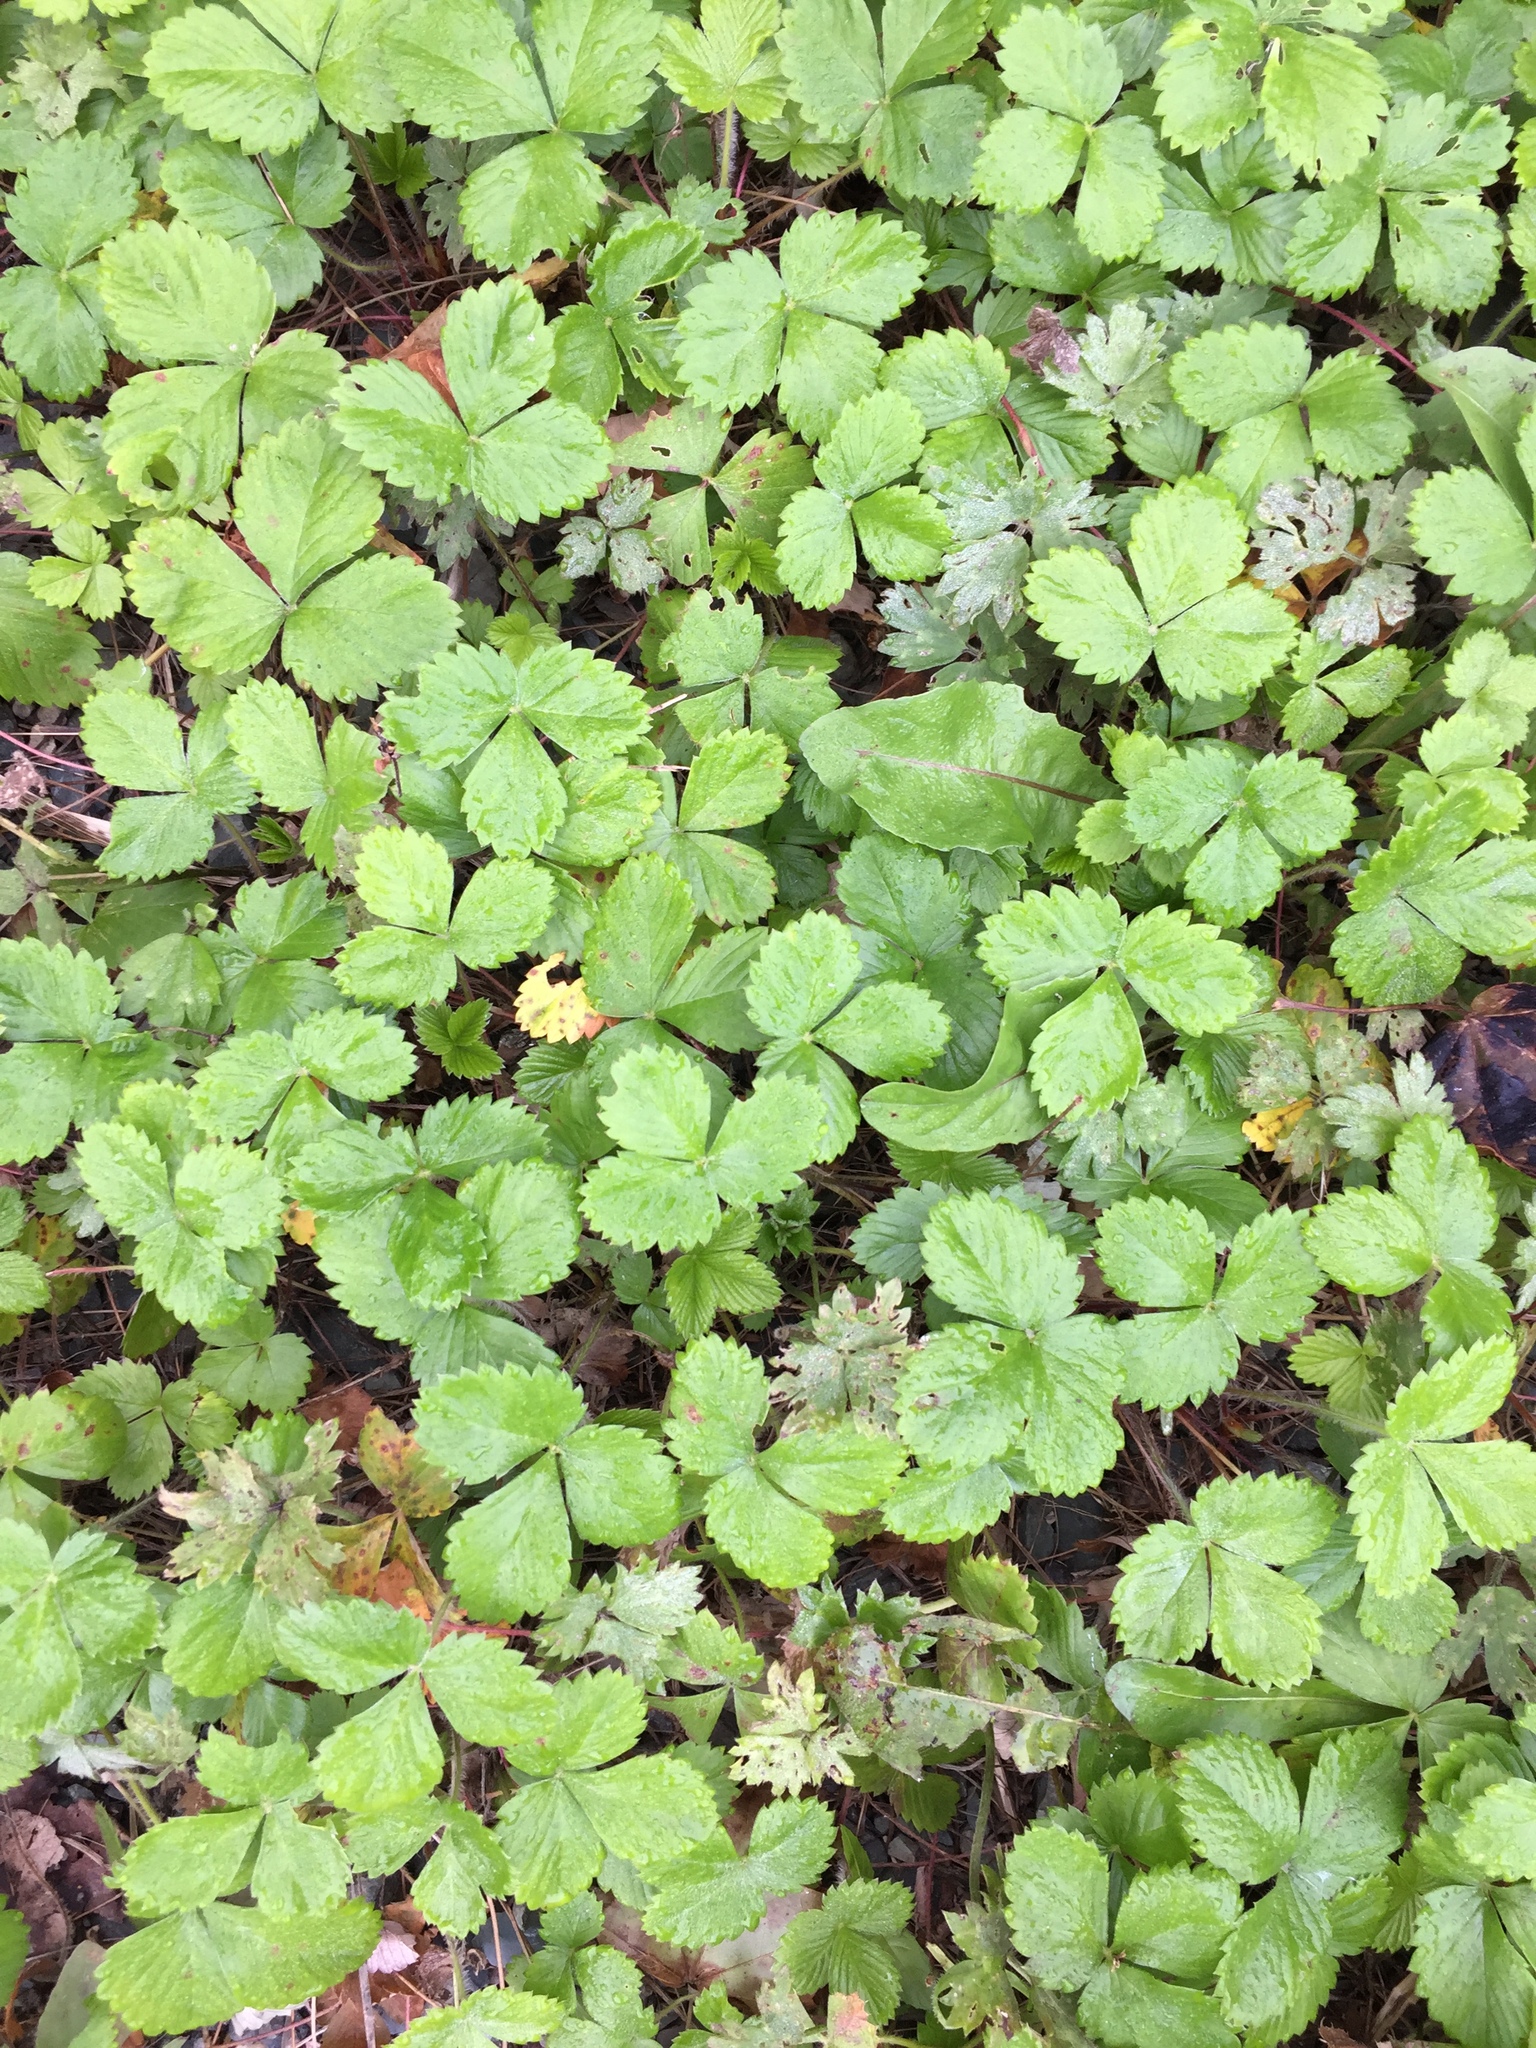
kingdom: Plantae
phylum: Tracheophyta
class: Magnoliopsida
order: Rosales
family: Rosaceae
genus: Fragaria
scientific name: Fragaria vesca
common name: Wild strawberry
